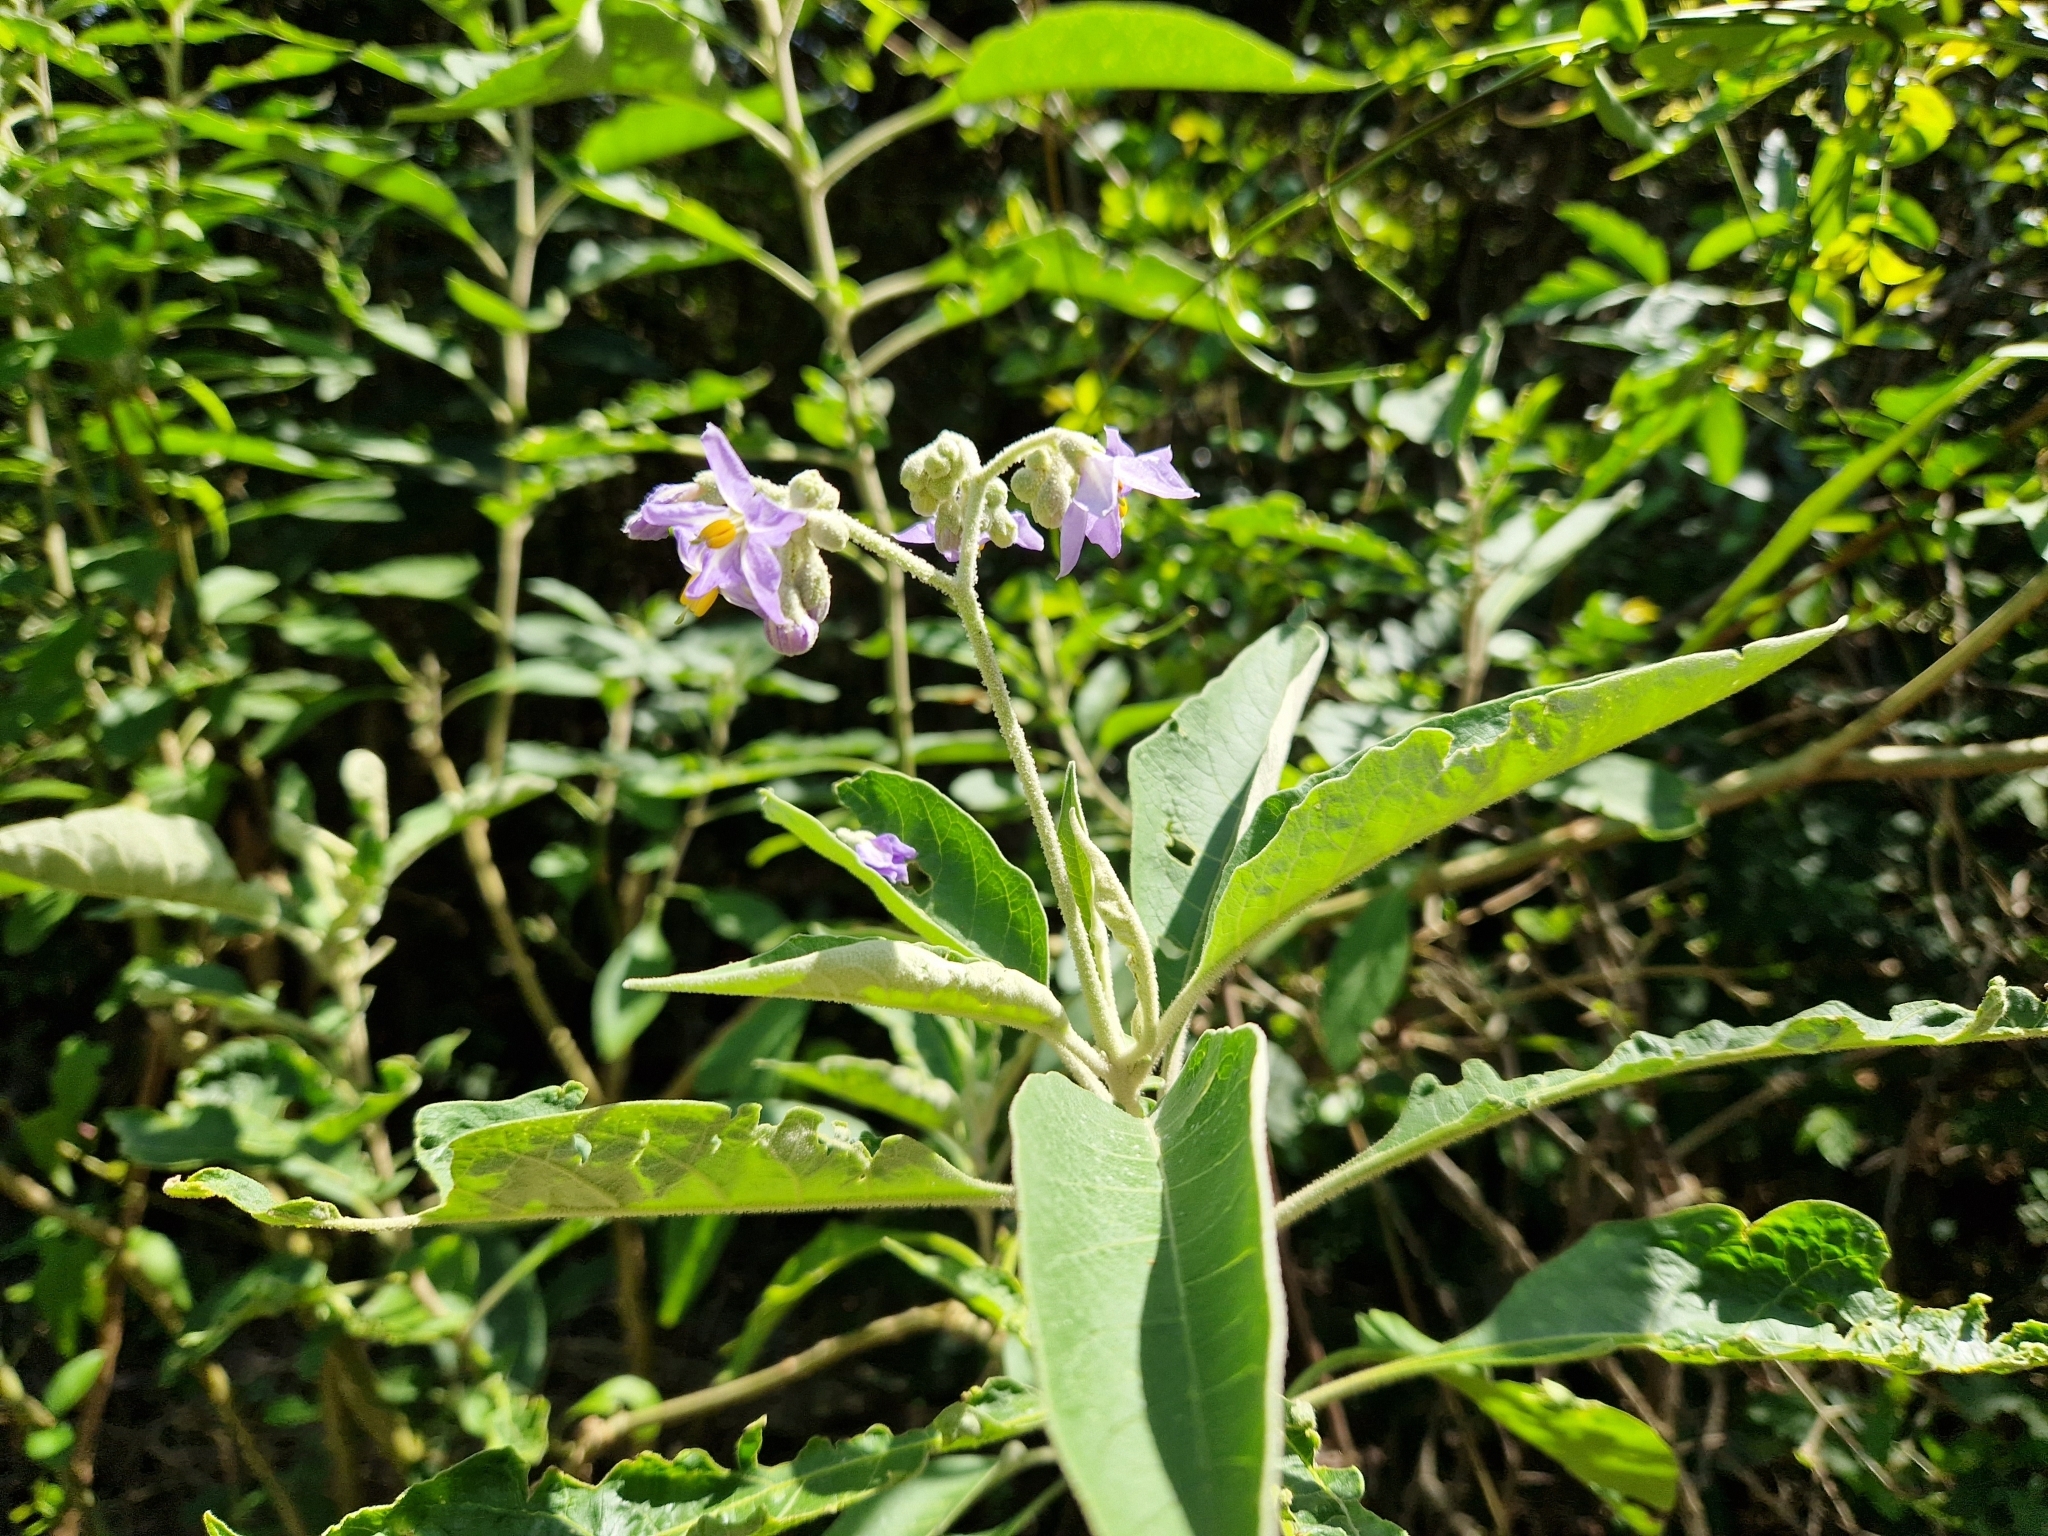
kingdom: Plantae
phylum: Tracheophyta
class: Magnoliopsida
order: Solanales
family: Solanaceae
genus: Solanum
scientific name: Solanum granulosoleprosum
